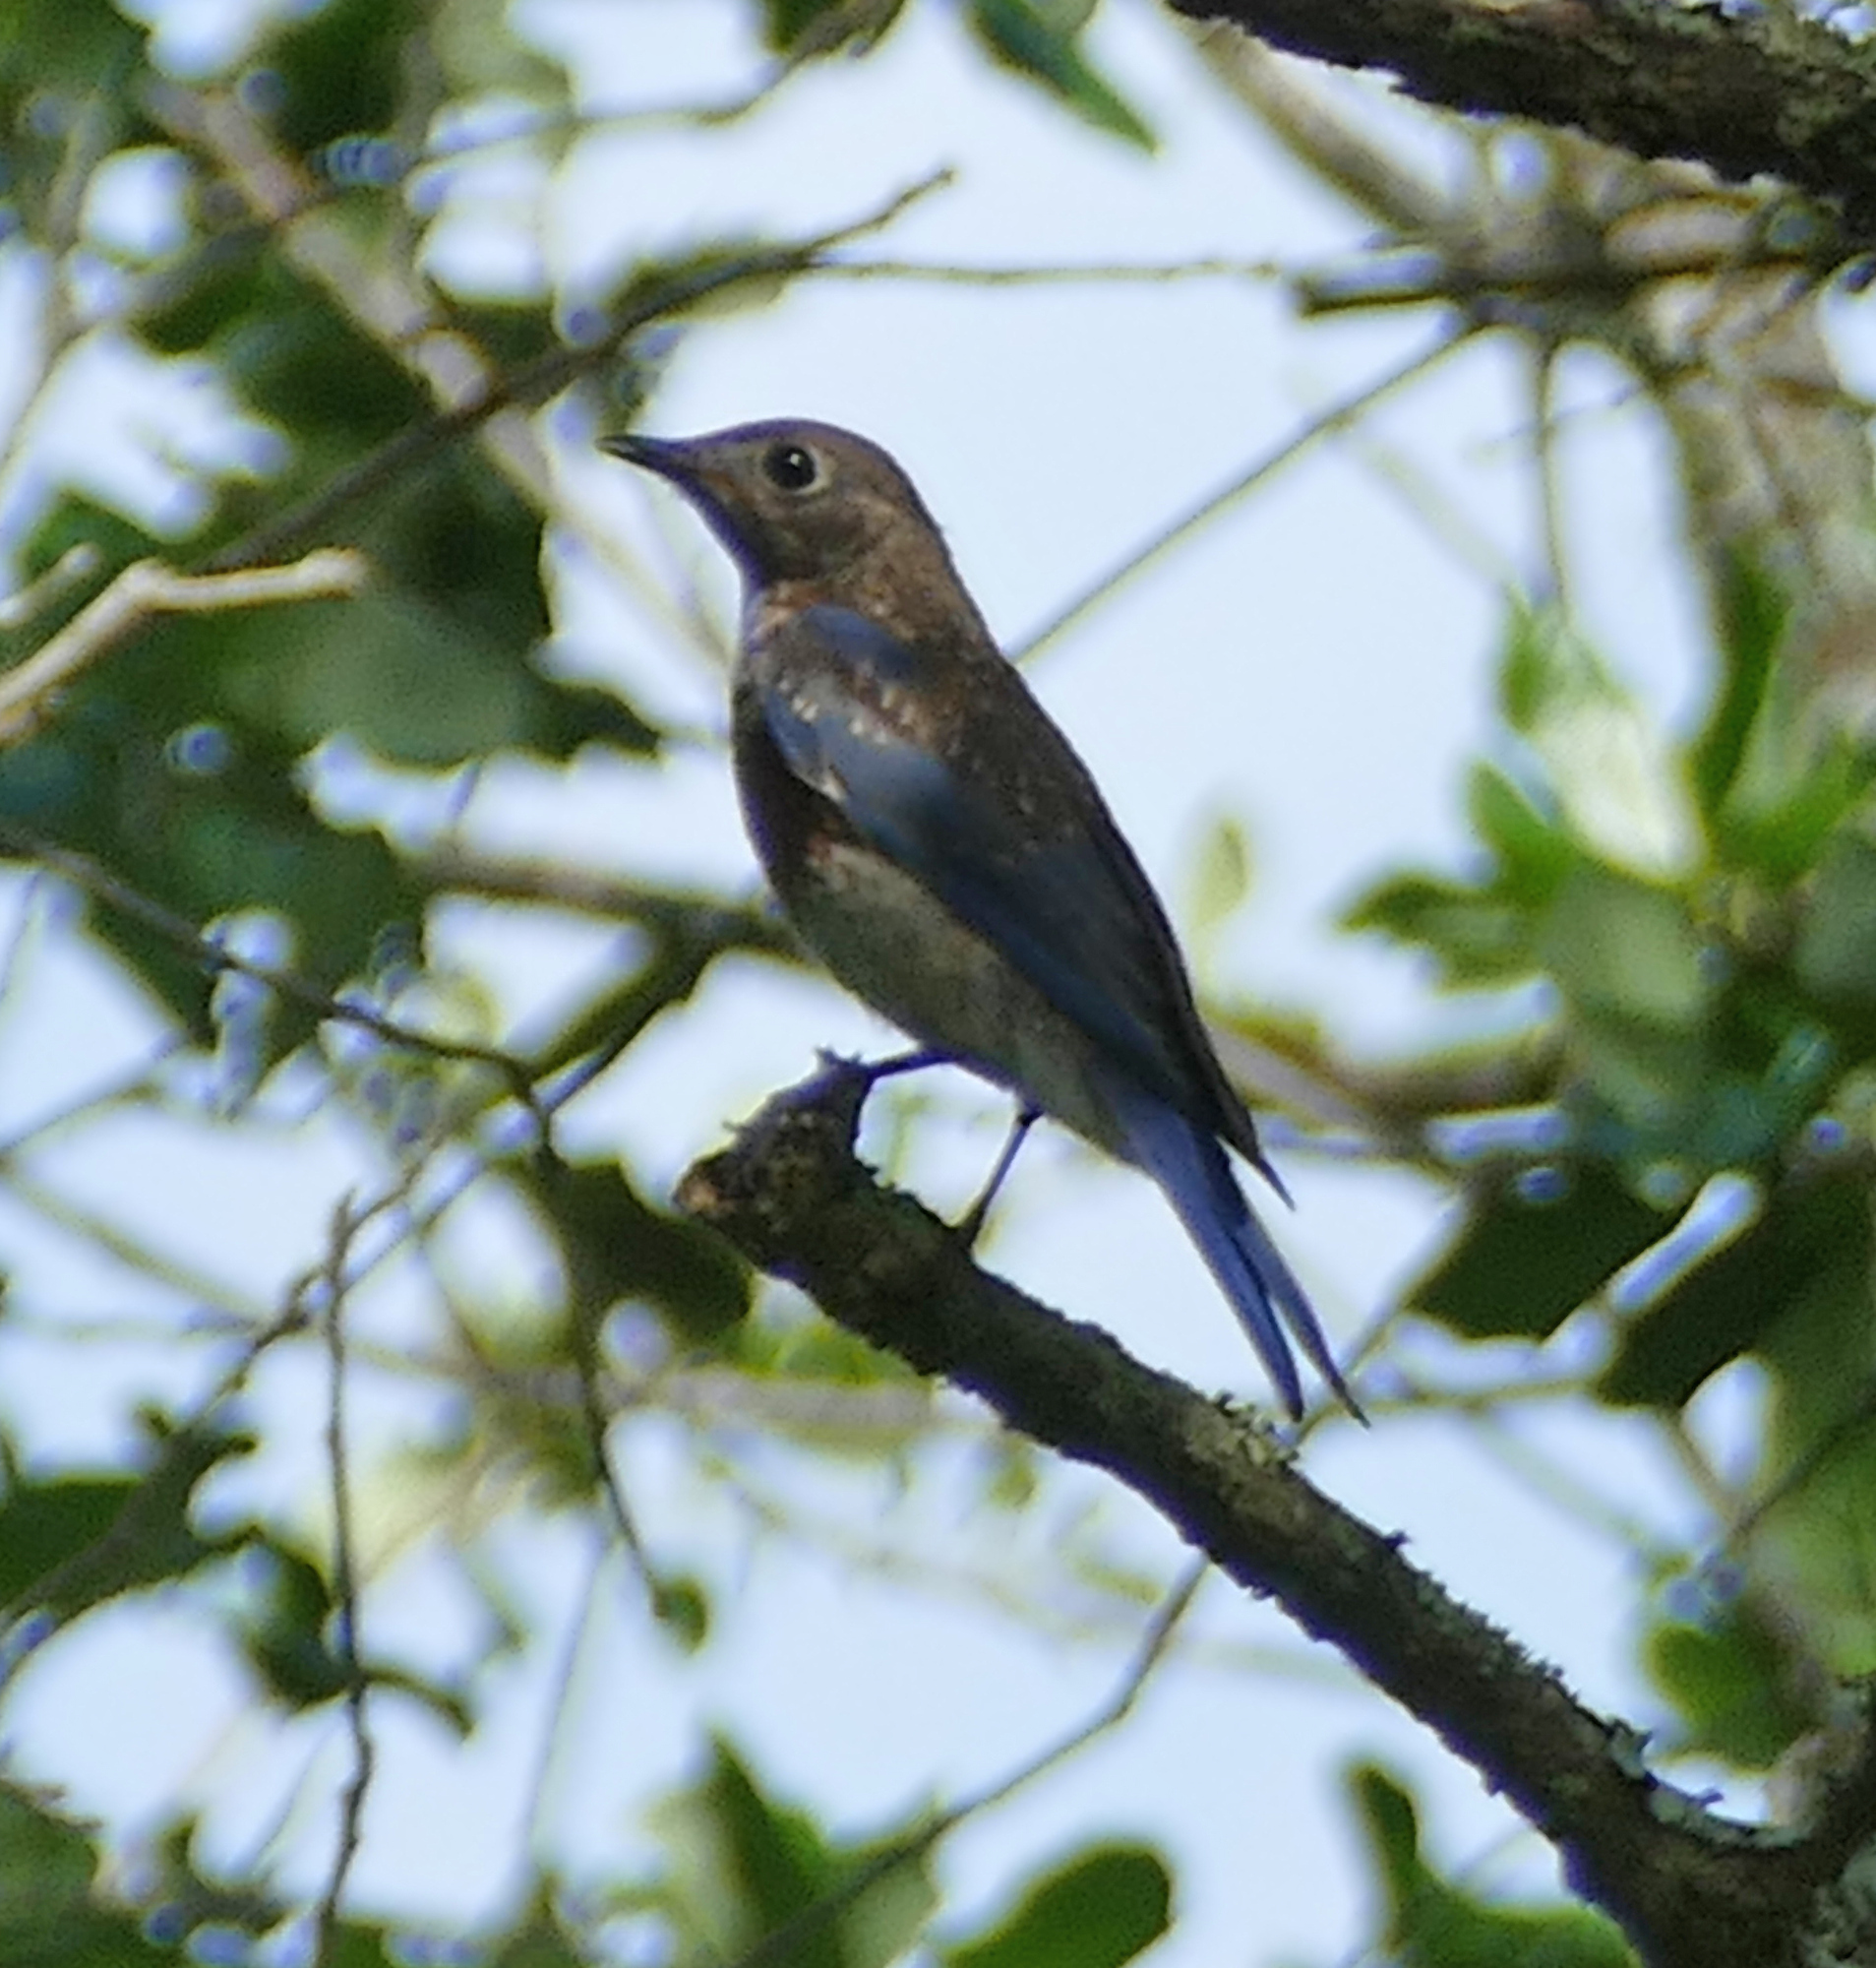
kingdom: Animalia
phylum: Chordata
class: Aves
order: Passeriformes
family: Turdidae
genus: Sialia
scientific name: Sialia sialis
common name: Eastern bluebird
